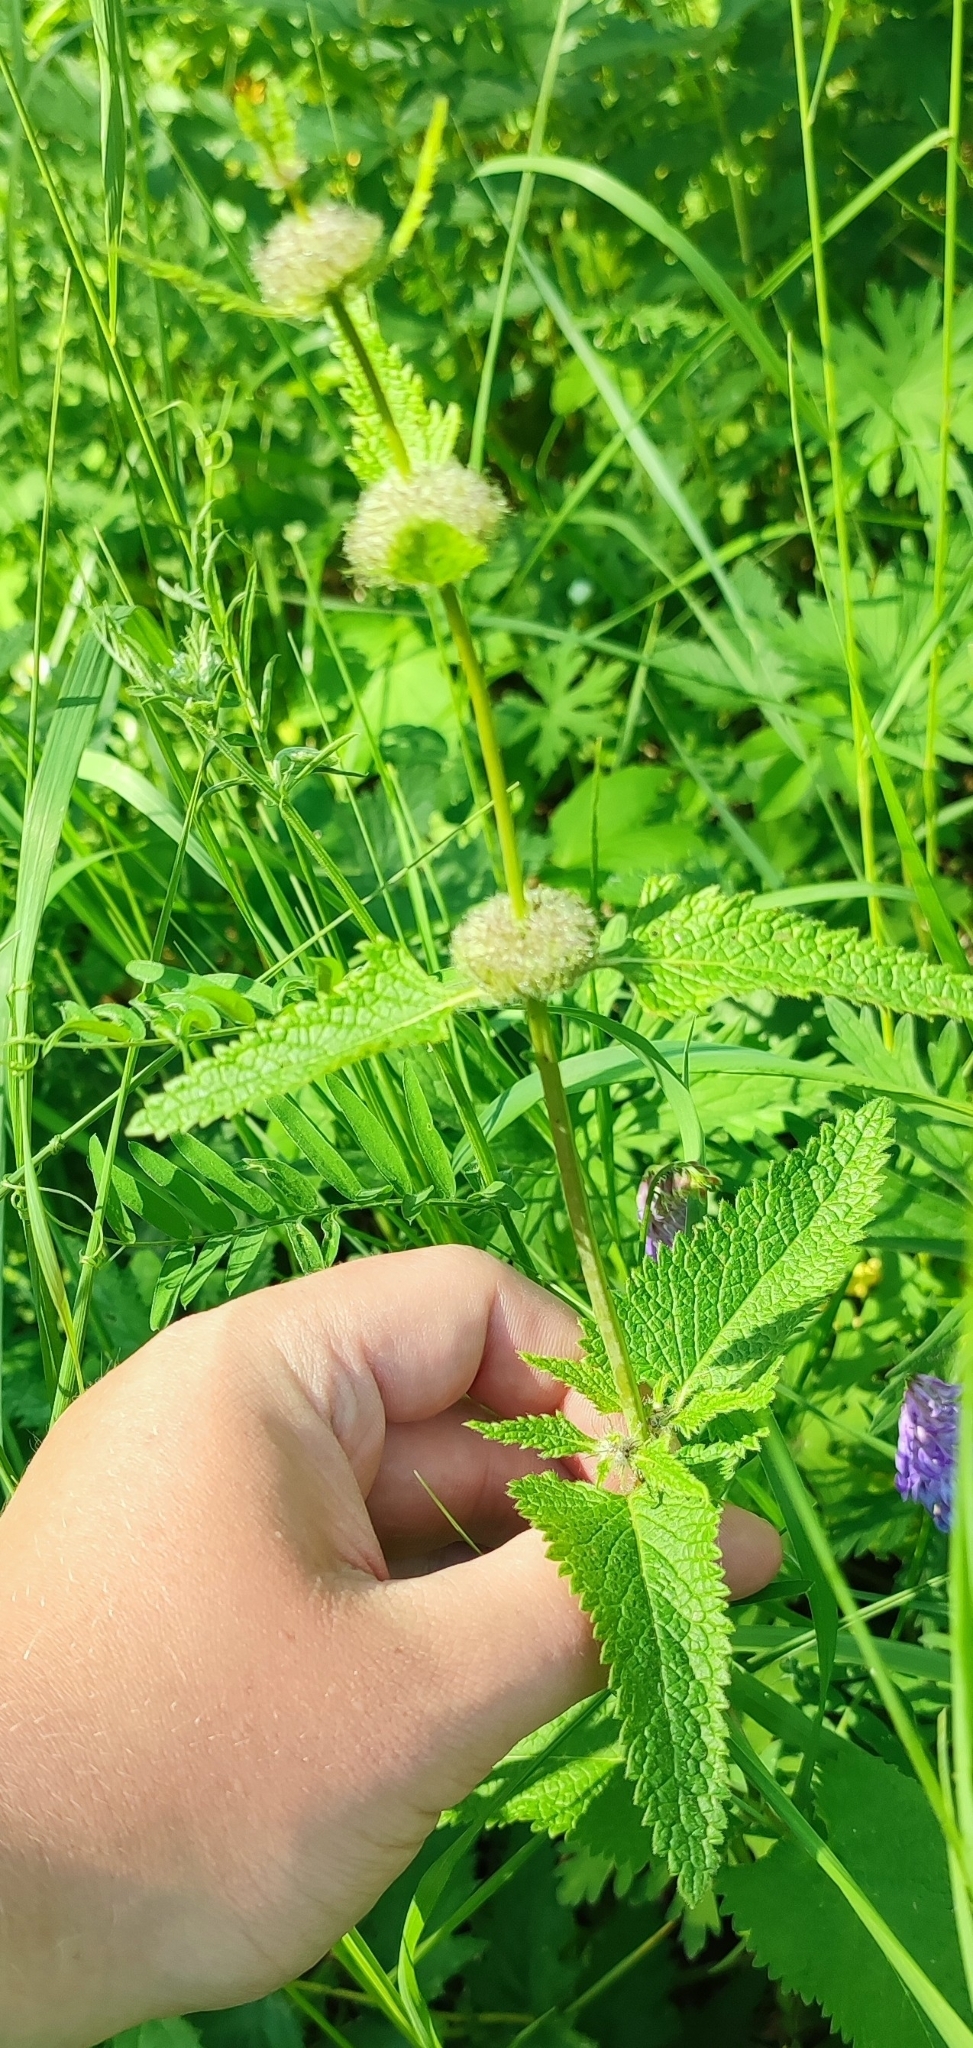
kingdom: Plantae
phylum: Tracheophyta
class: Magnoliopsida
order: Lamiales
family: Lamiaceae
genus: Phlomoides
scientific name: Phlomoides tuberosa
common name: Tuberous jerusalem sage
